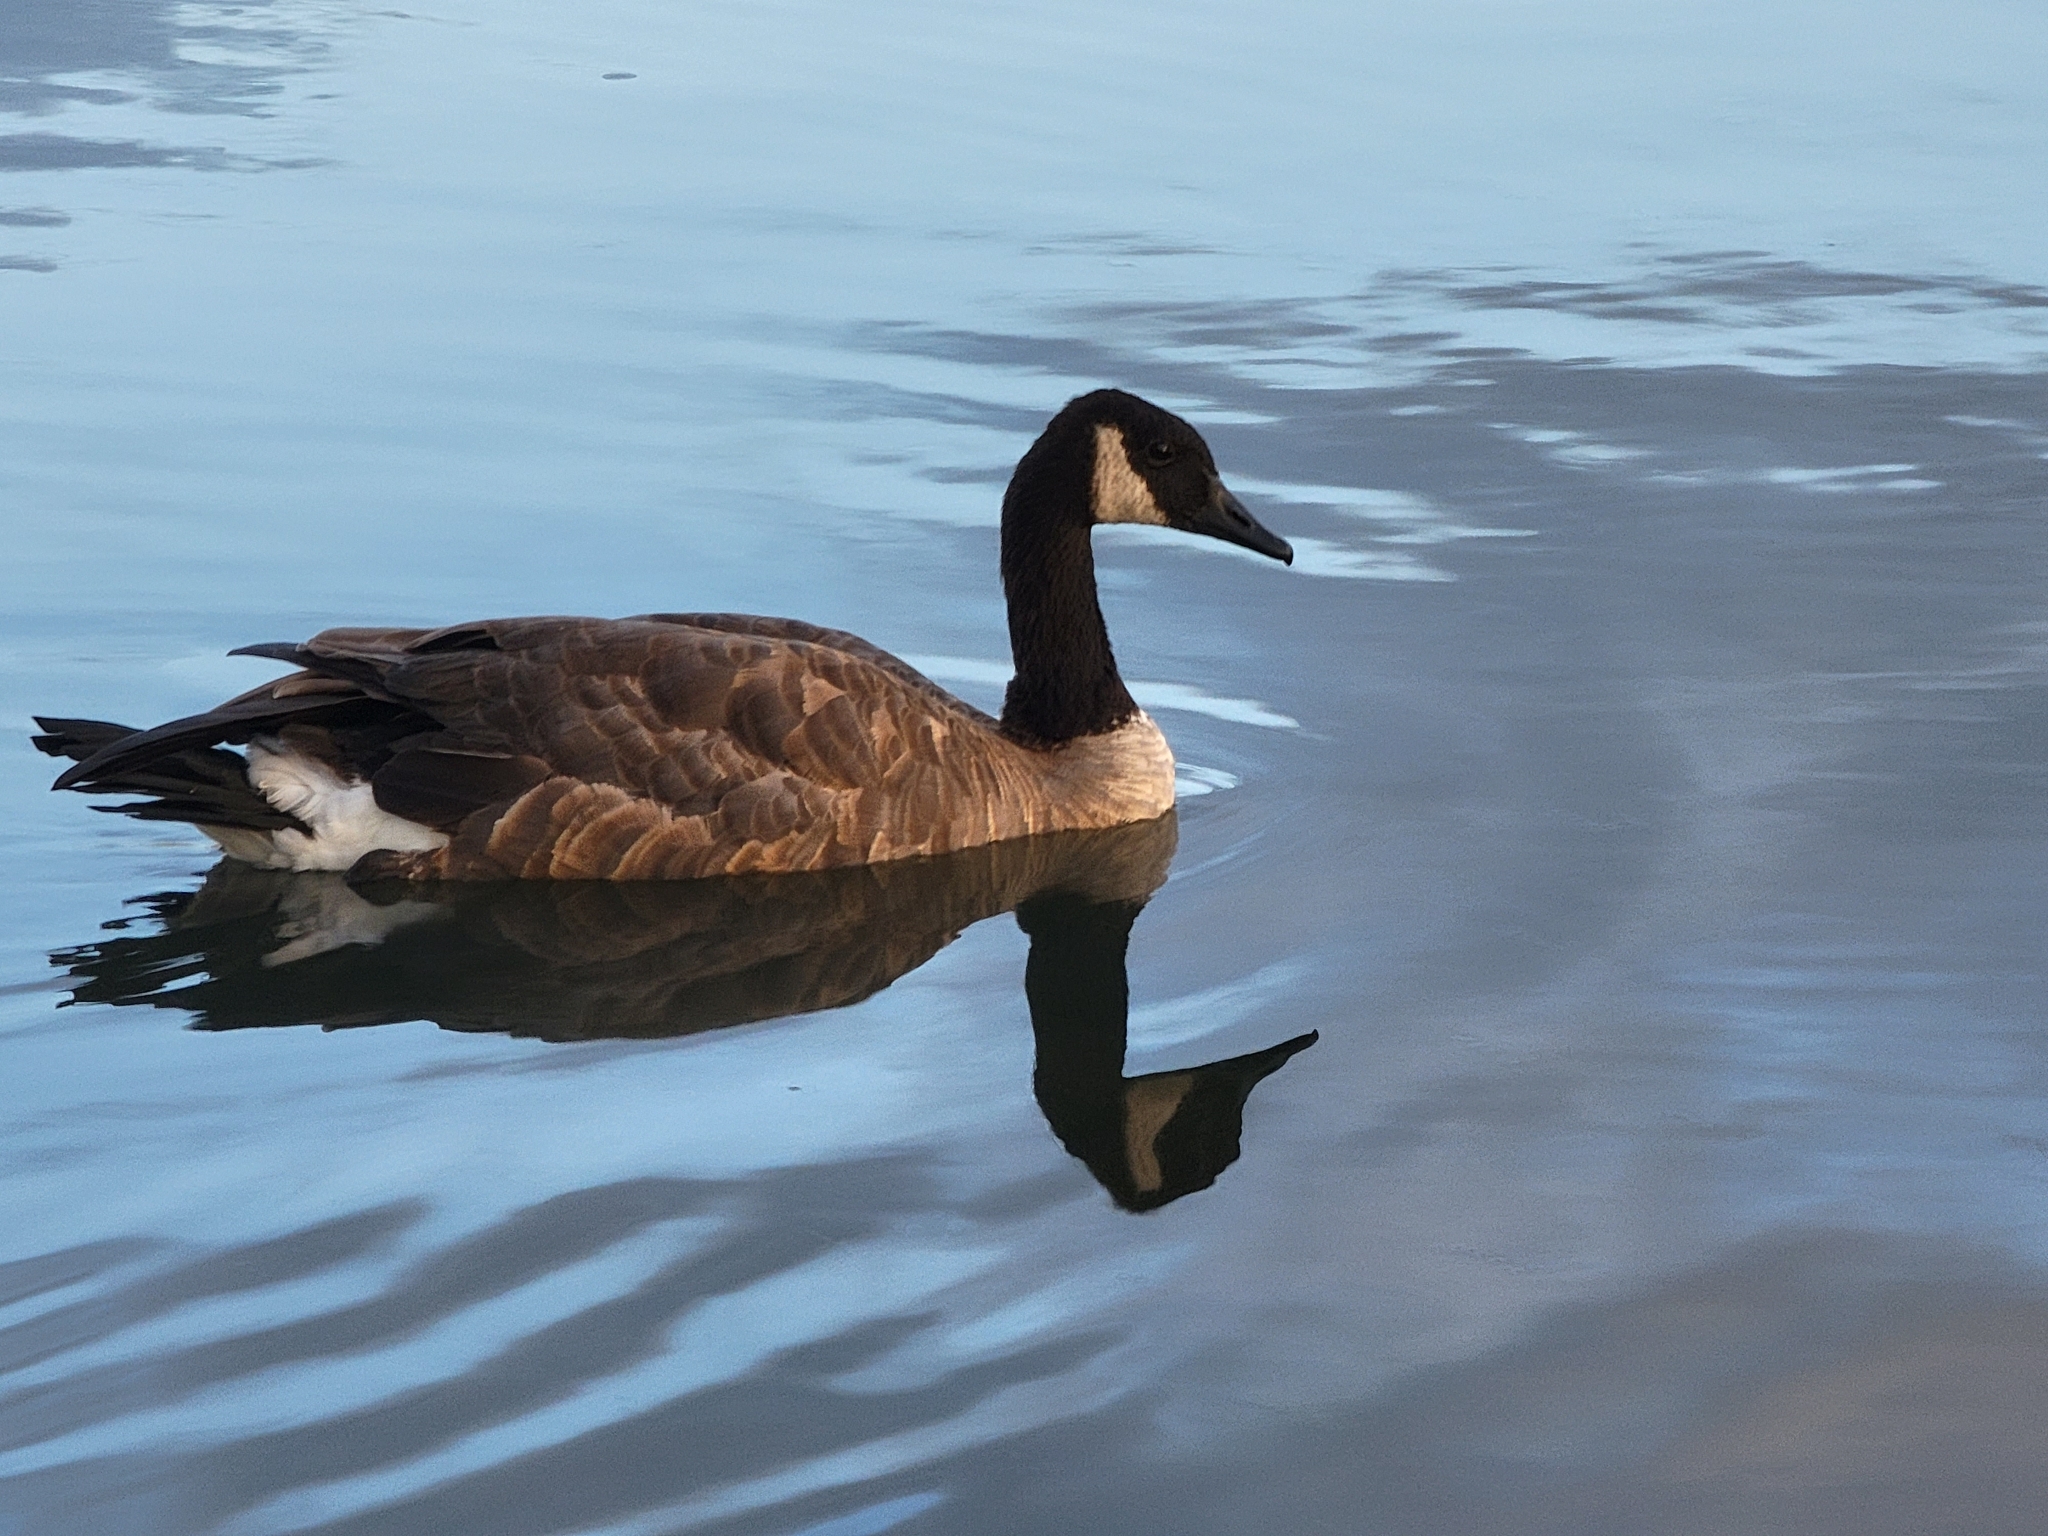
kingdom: Animalia
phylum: Chordata
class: Aves
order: Anseriformes
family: Anatidae
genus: Branta
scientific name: Branta canadensis
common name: Canada goose
